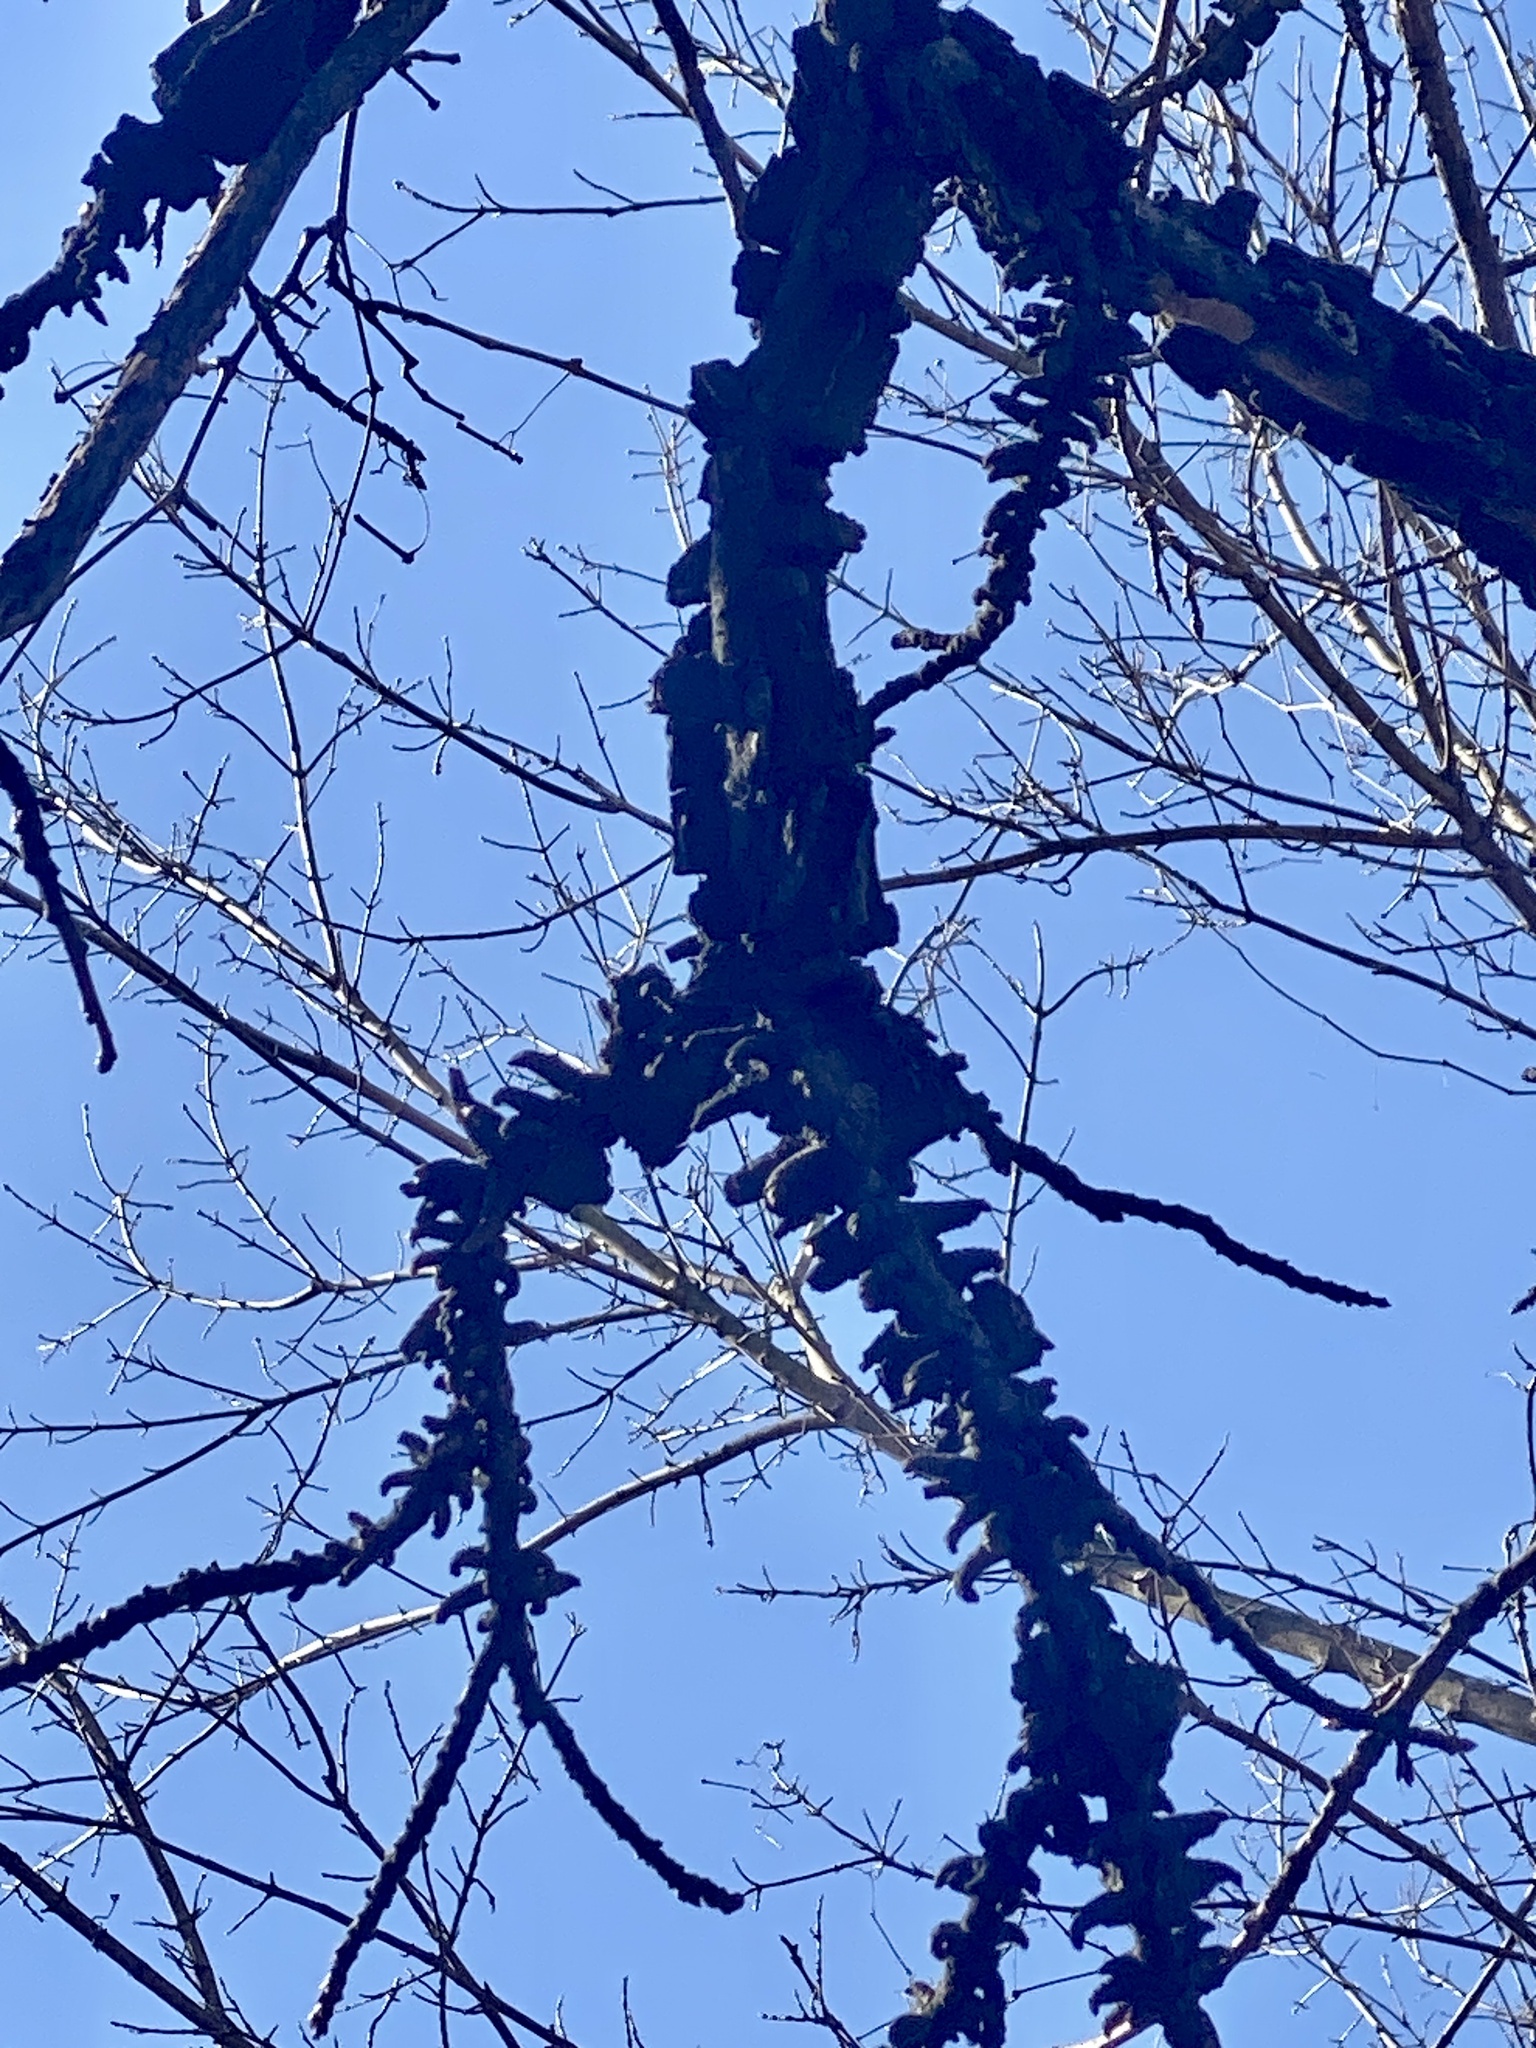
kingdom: Plantae
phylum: Tracheophyta
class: Magnoliopsida
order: Saxifragales
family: Altingiaceae
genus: Liquidambar
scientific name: Liquidambar styraciflua
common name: Sweet gum
